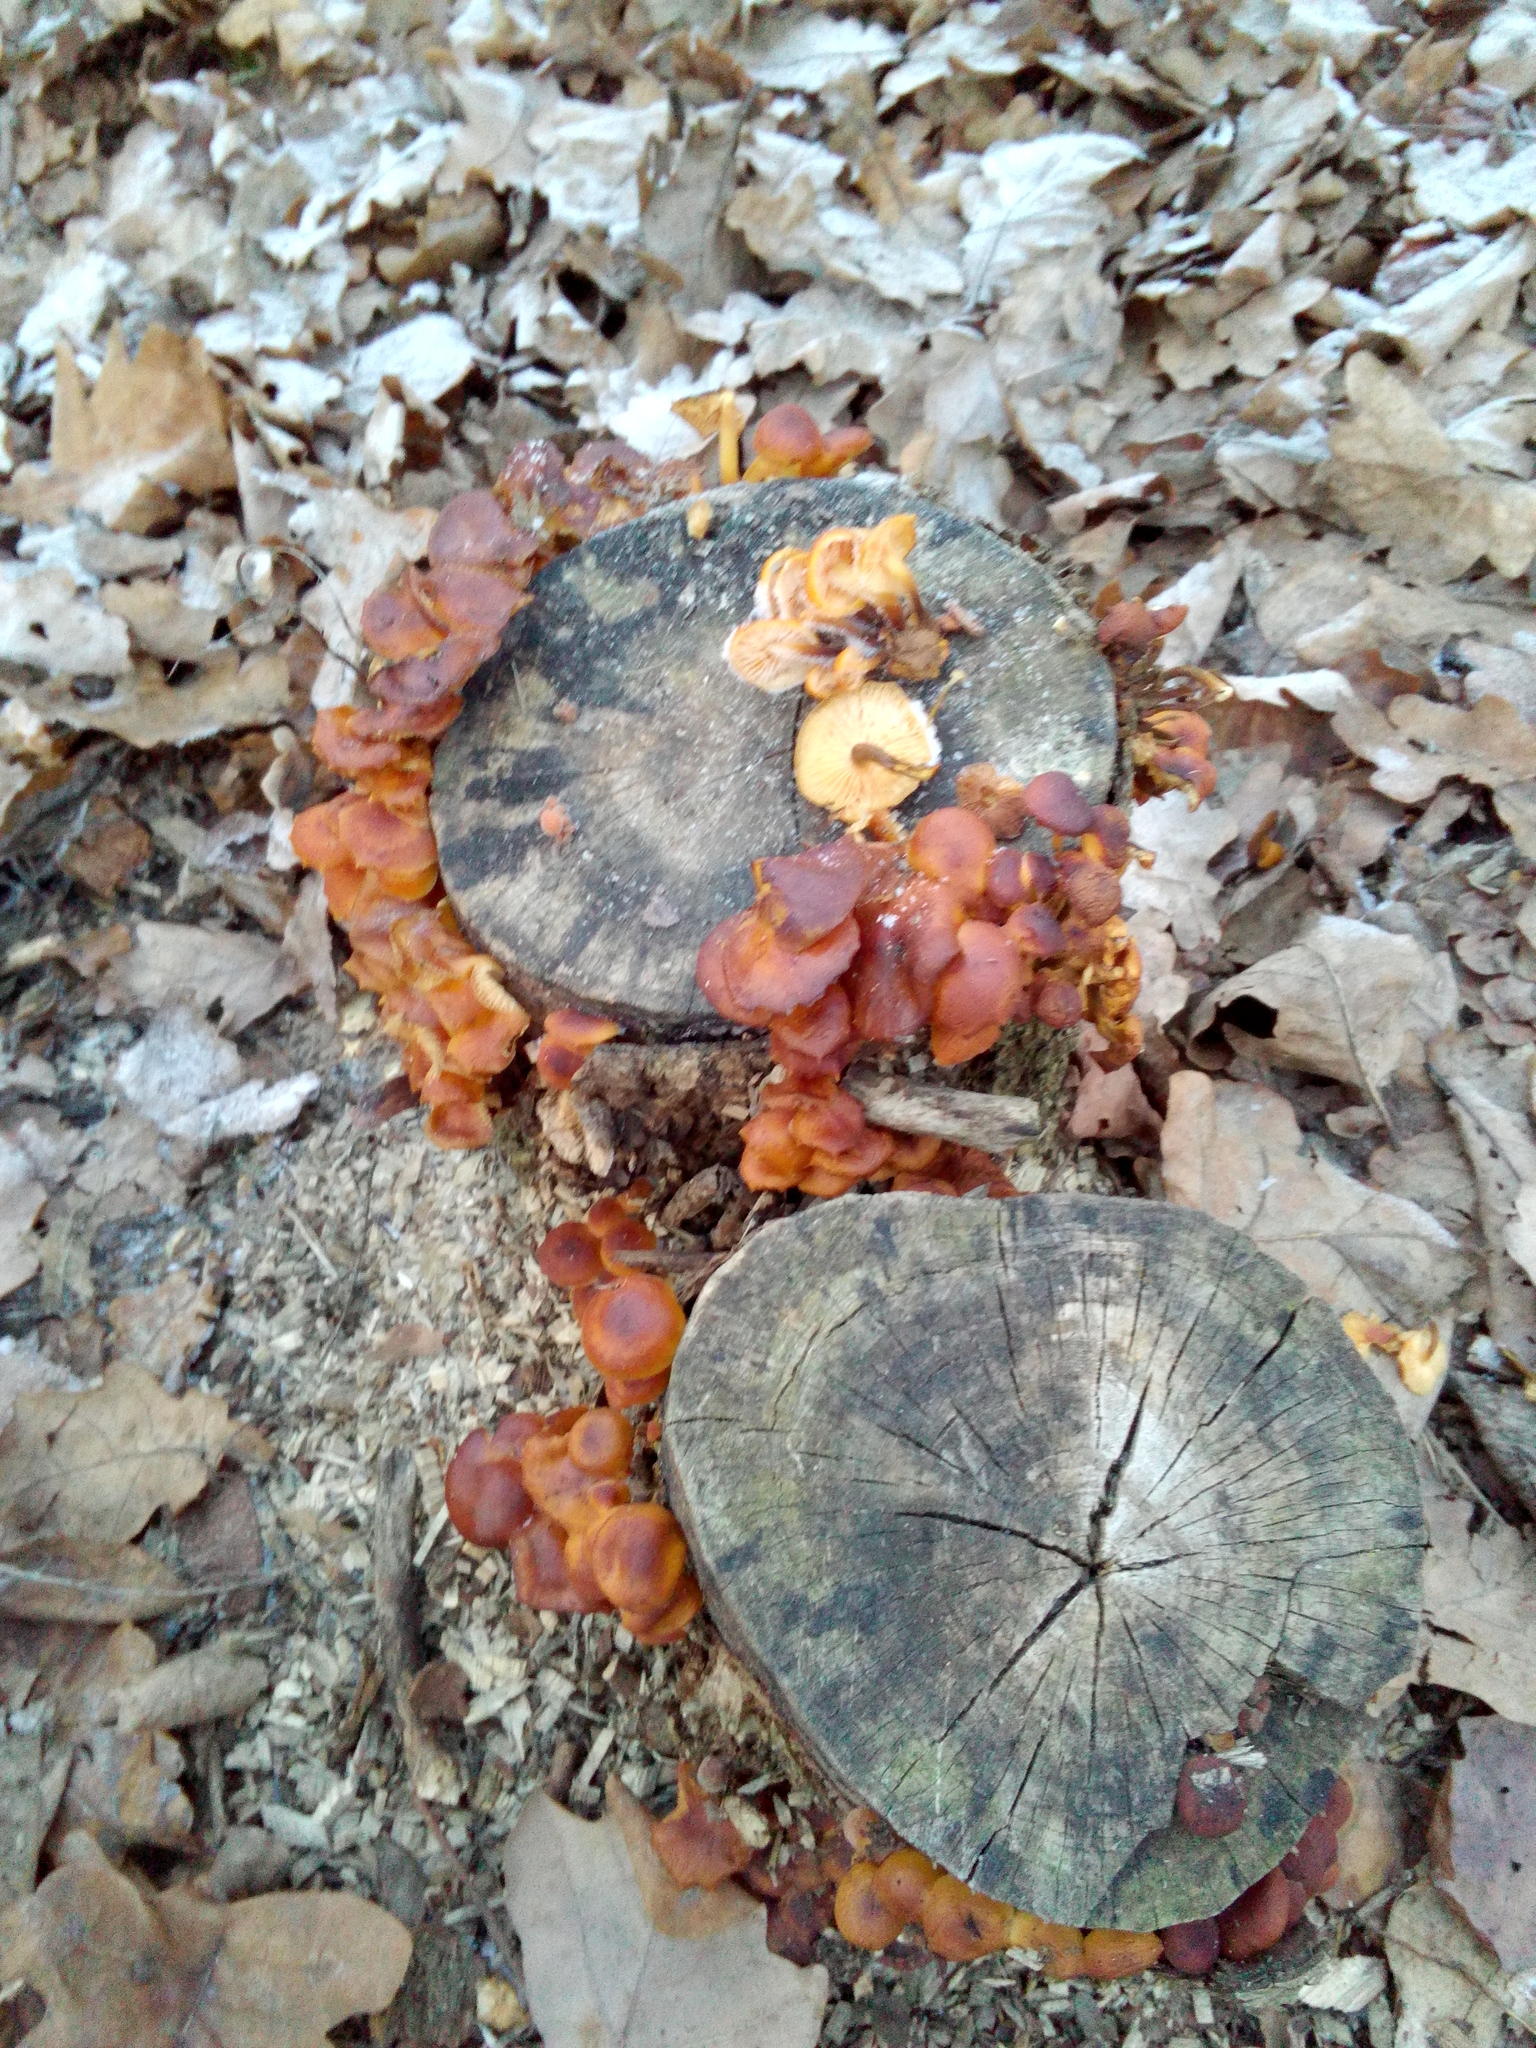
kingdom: Fungi
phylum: Basidiomycota
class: Agaricomycetes
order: Agaricales
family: Physalacriaceae
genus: Flammulina
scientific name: Flammulina
